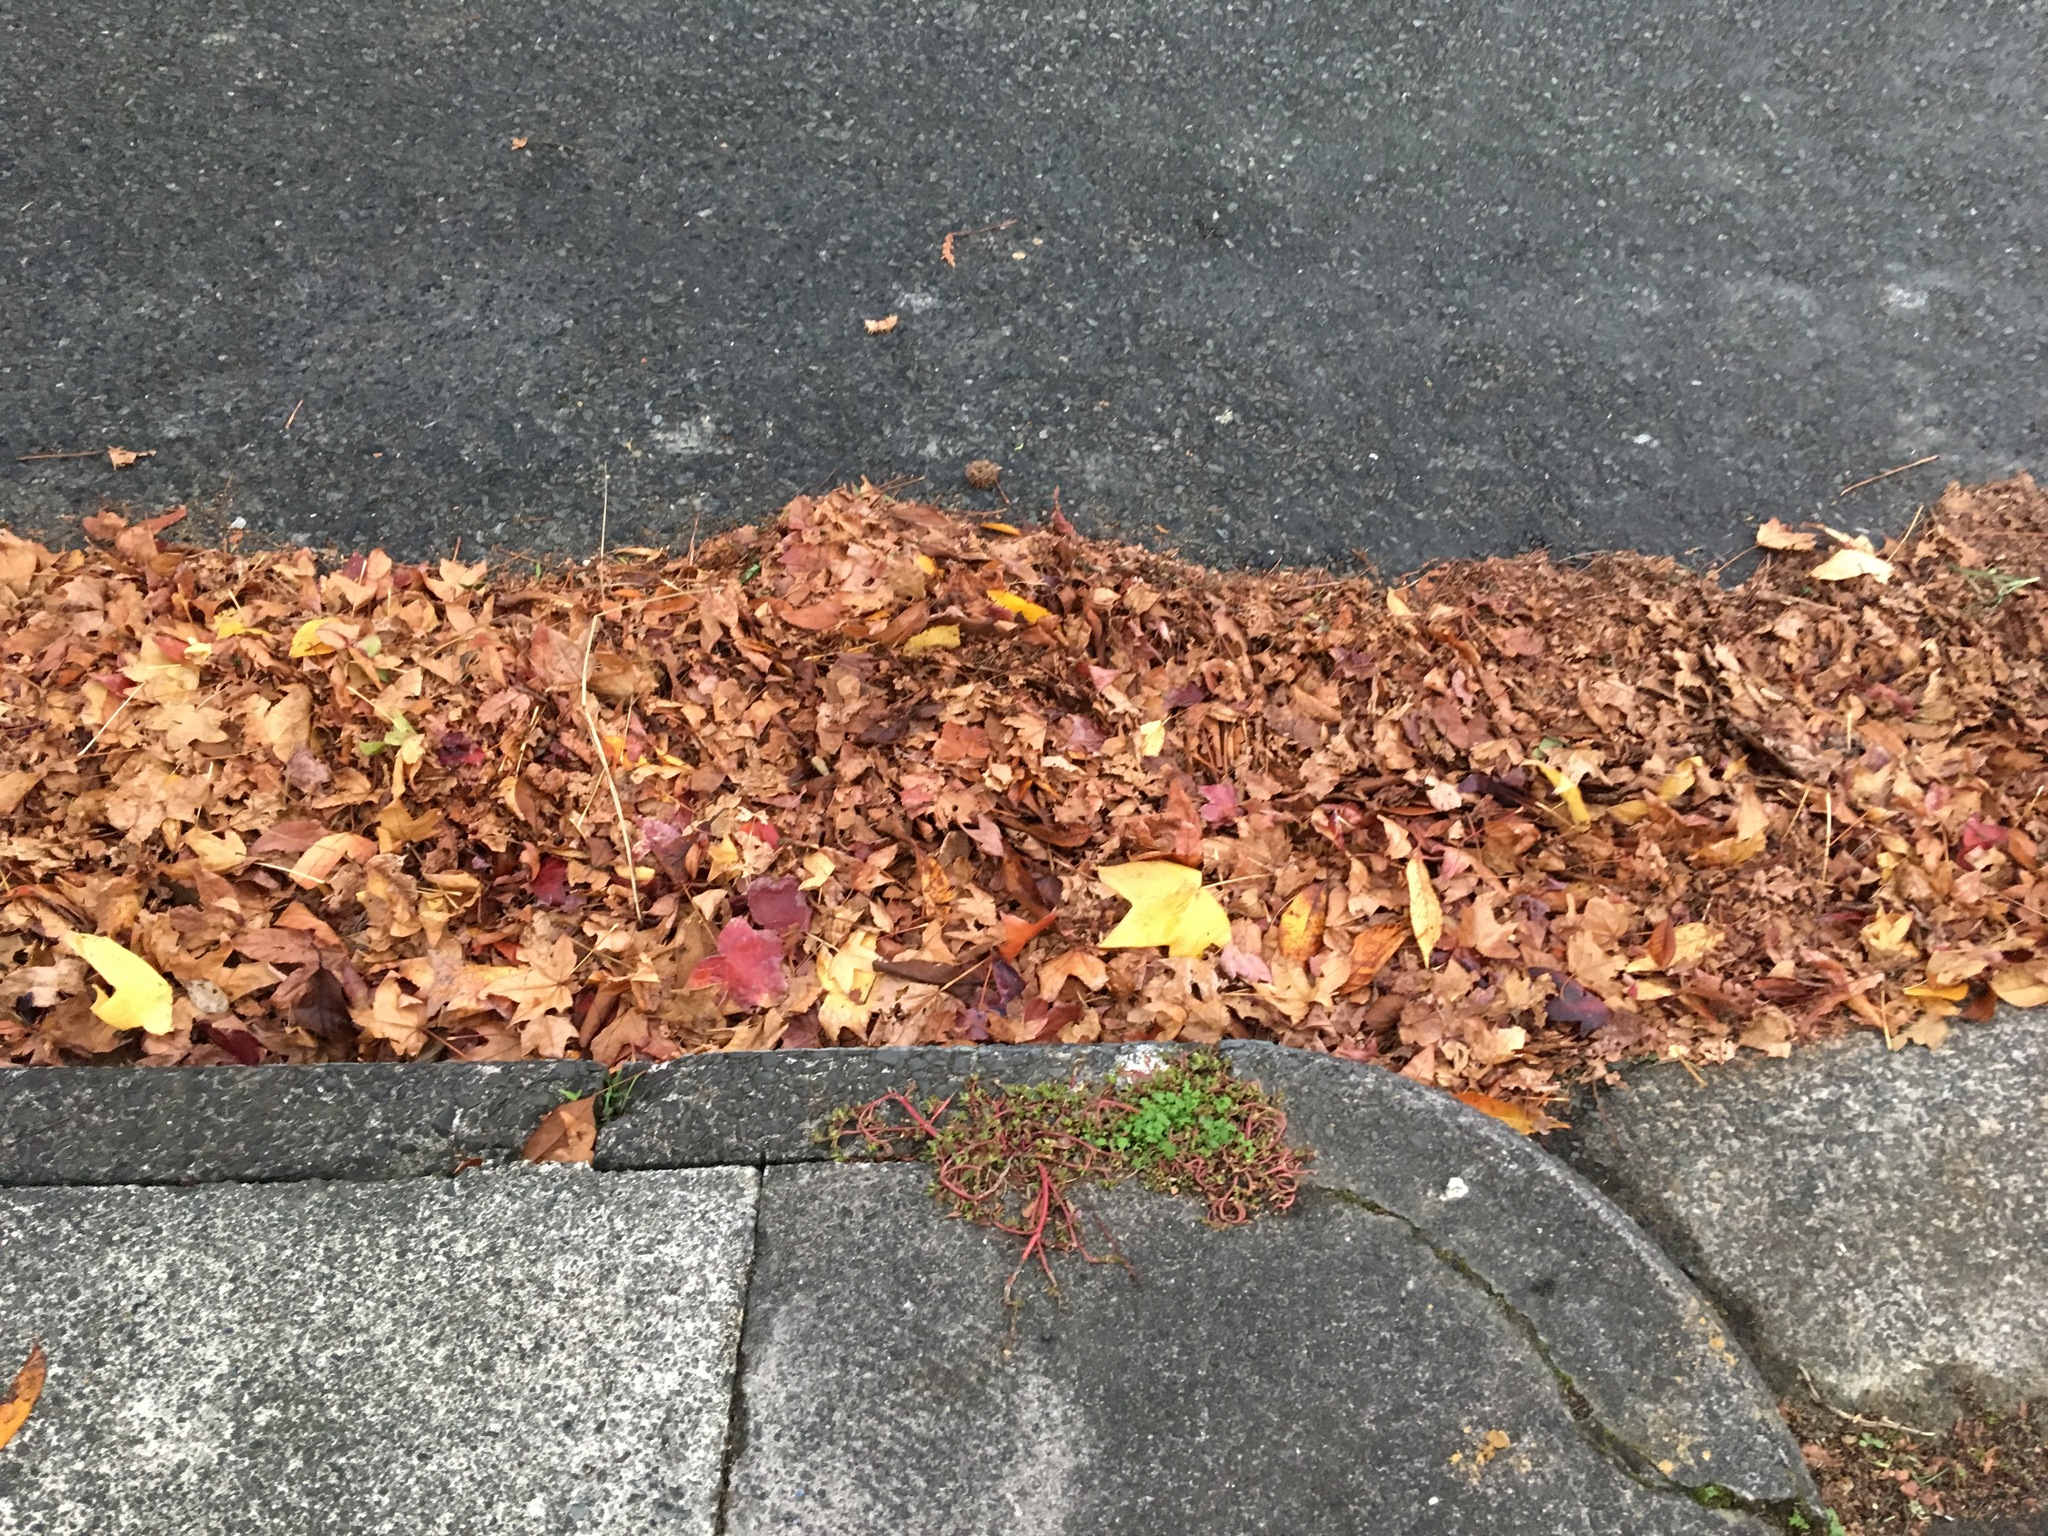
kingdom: Plantae
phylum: Tracheophyta
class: Magnoliopsida
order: Caryophyllales
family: Portulacaceae
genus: Portulaca
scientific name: Portulaca oleracea
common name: Common purslane
